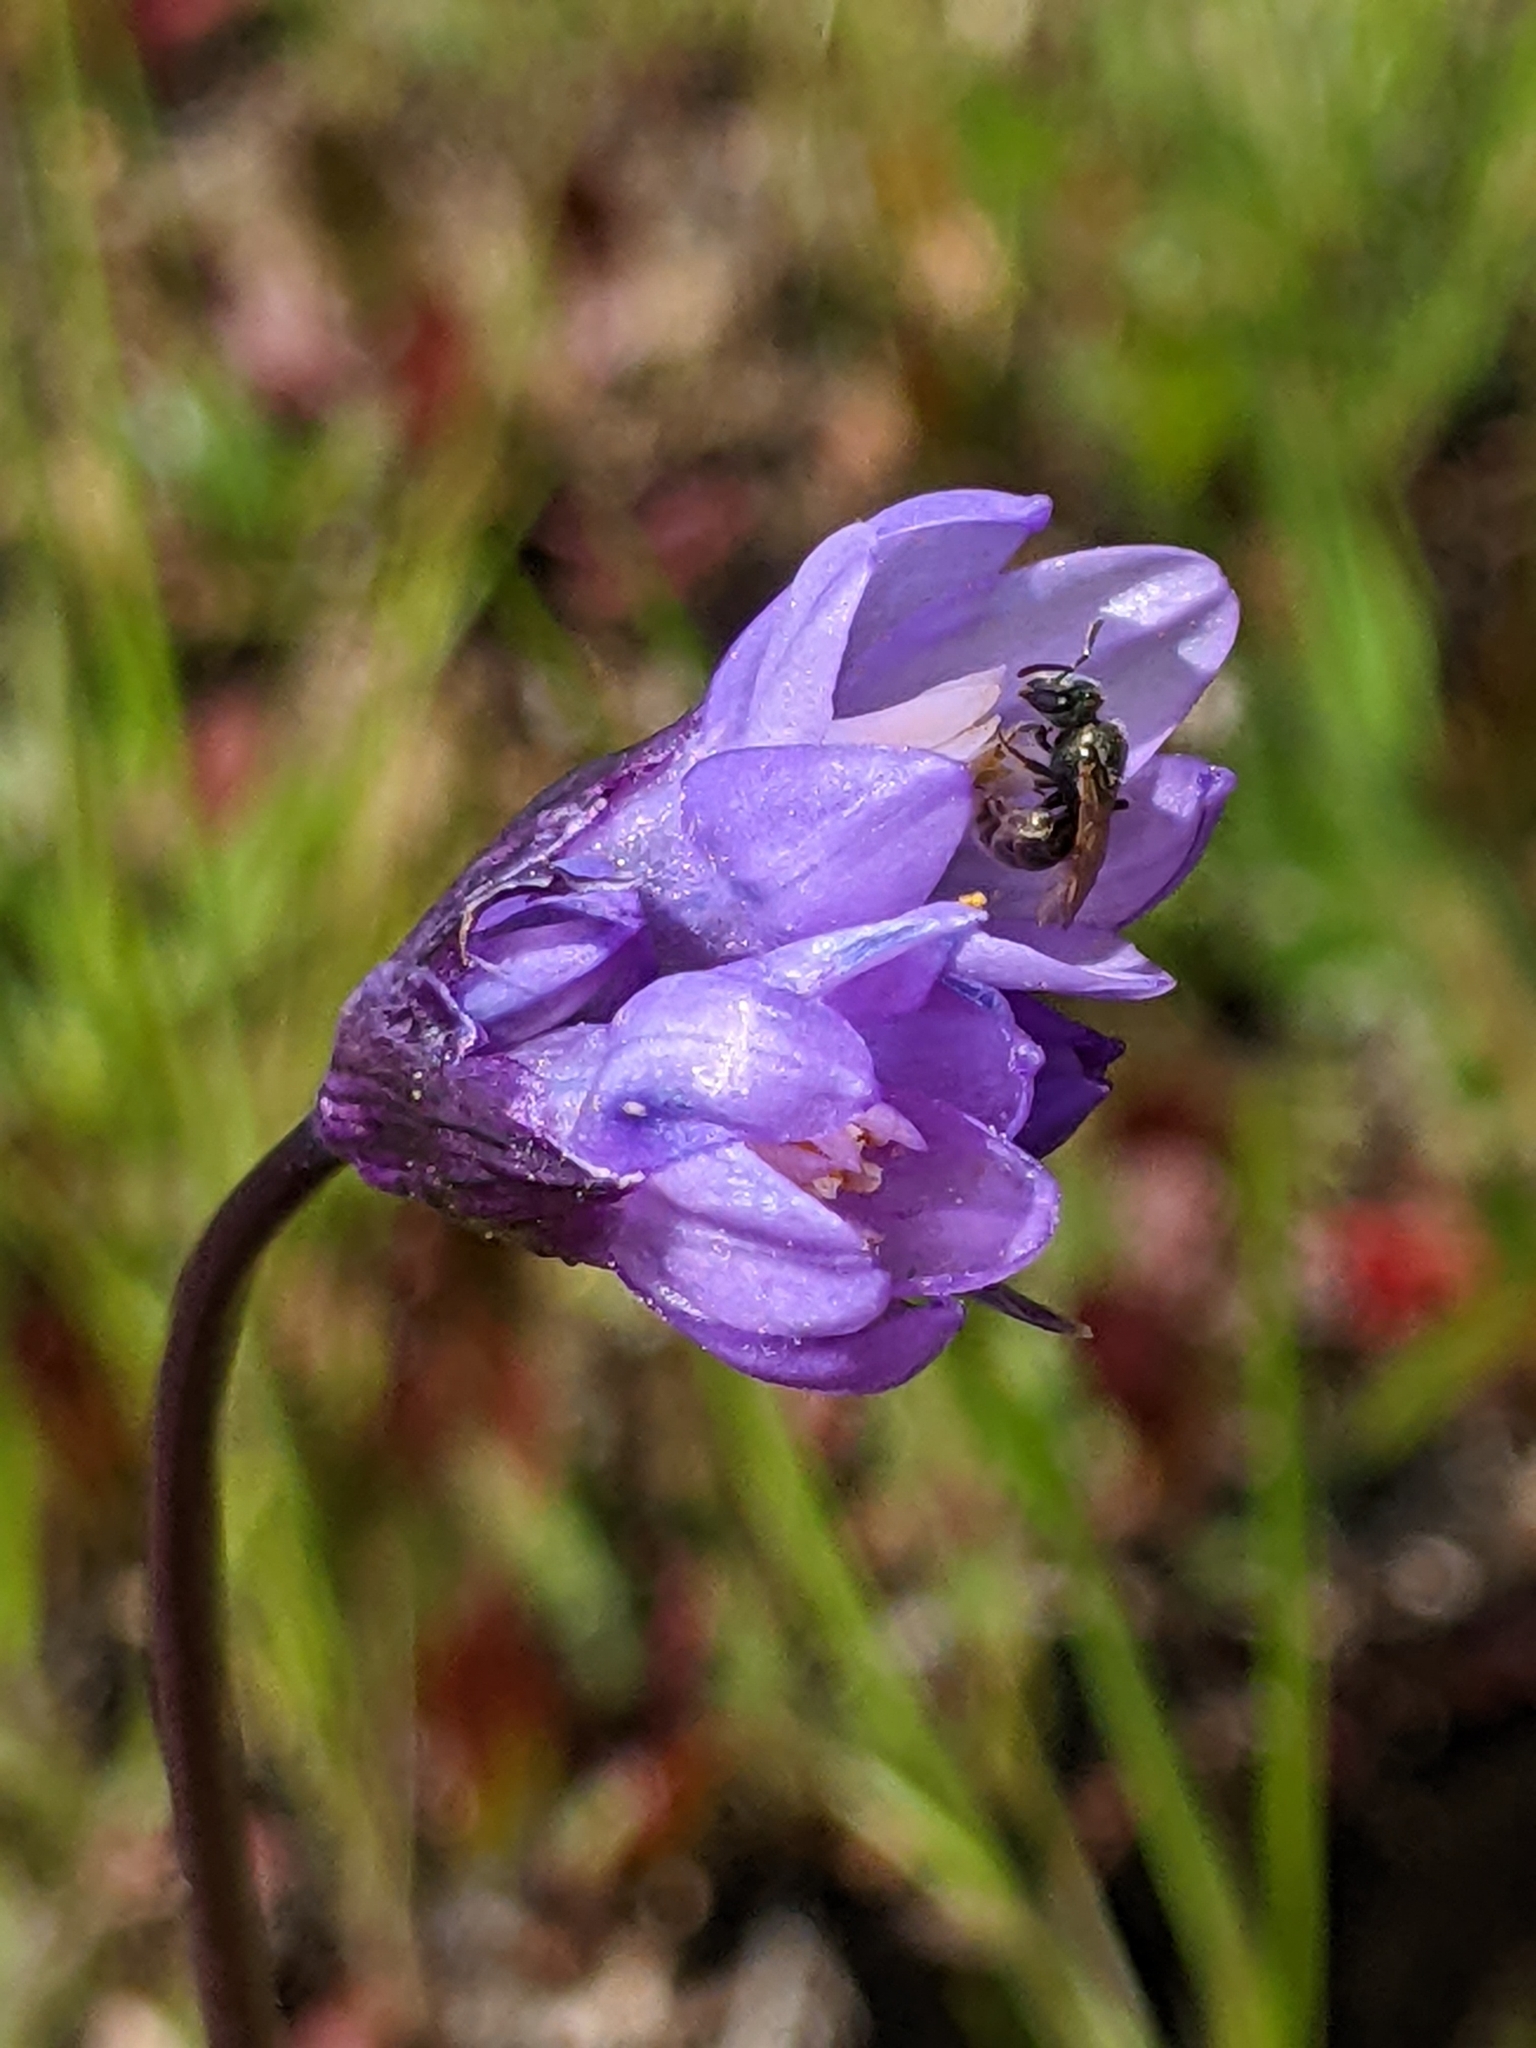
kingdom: Plantae
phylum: Tracheophyta
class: Liliopsida
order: Asparagales
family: Asparagaceae
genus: Dipterostemon
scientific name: Dipterostemon capitatus
